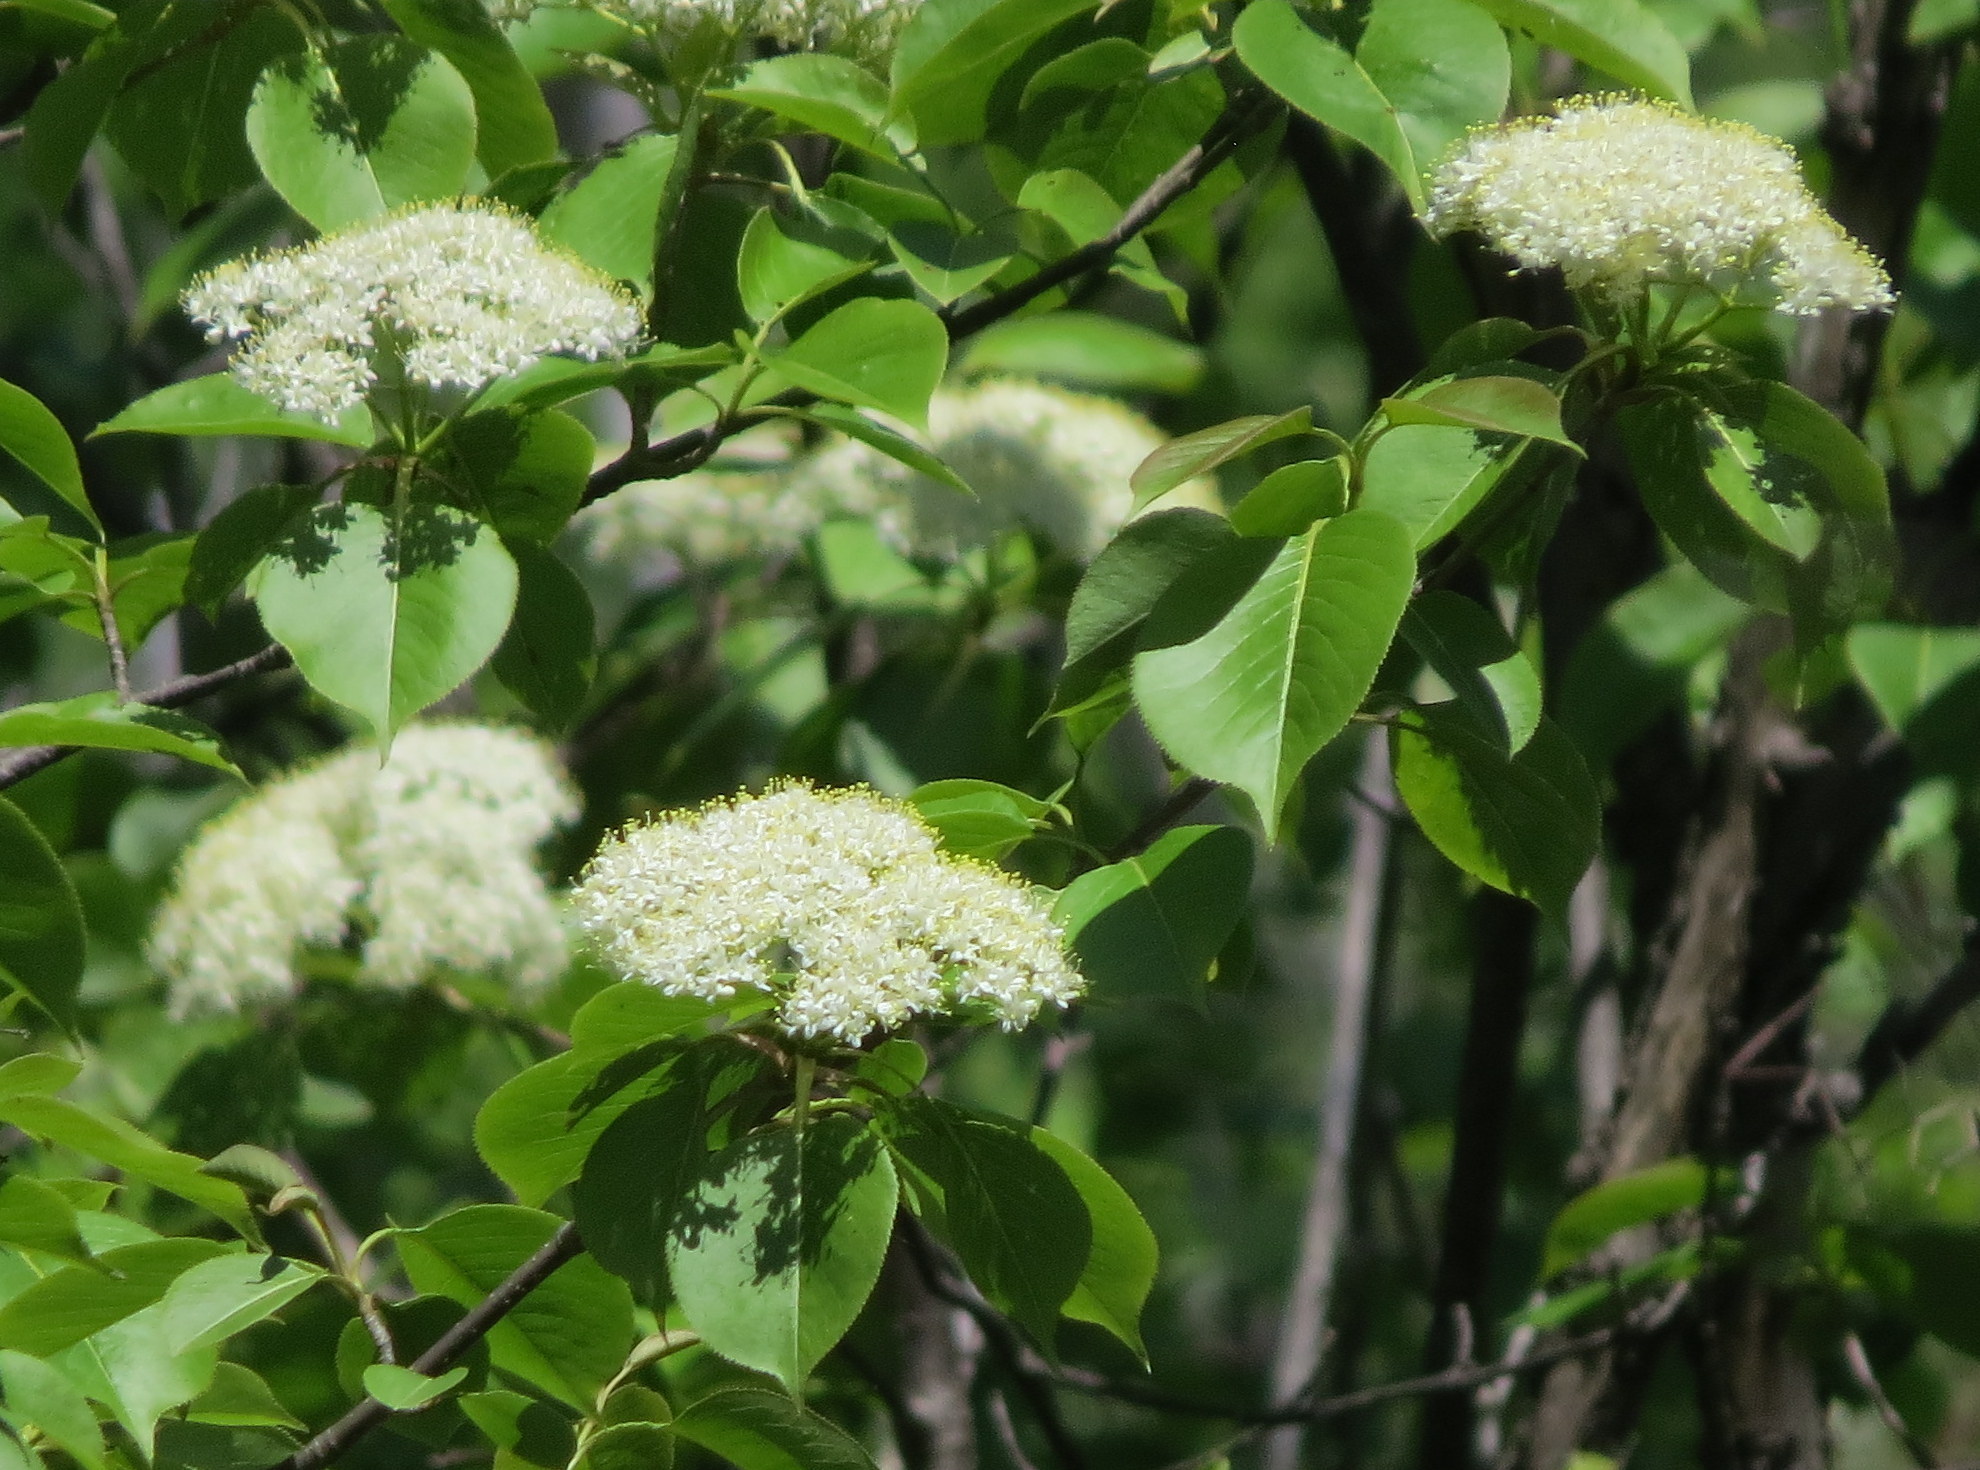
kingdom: Plantae
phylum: Tracheophyta
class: Magnoliopsida
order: Dipsacales
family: Viburnaceae
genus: Viburnum
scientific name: Viburnum lentago
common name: Black haw
